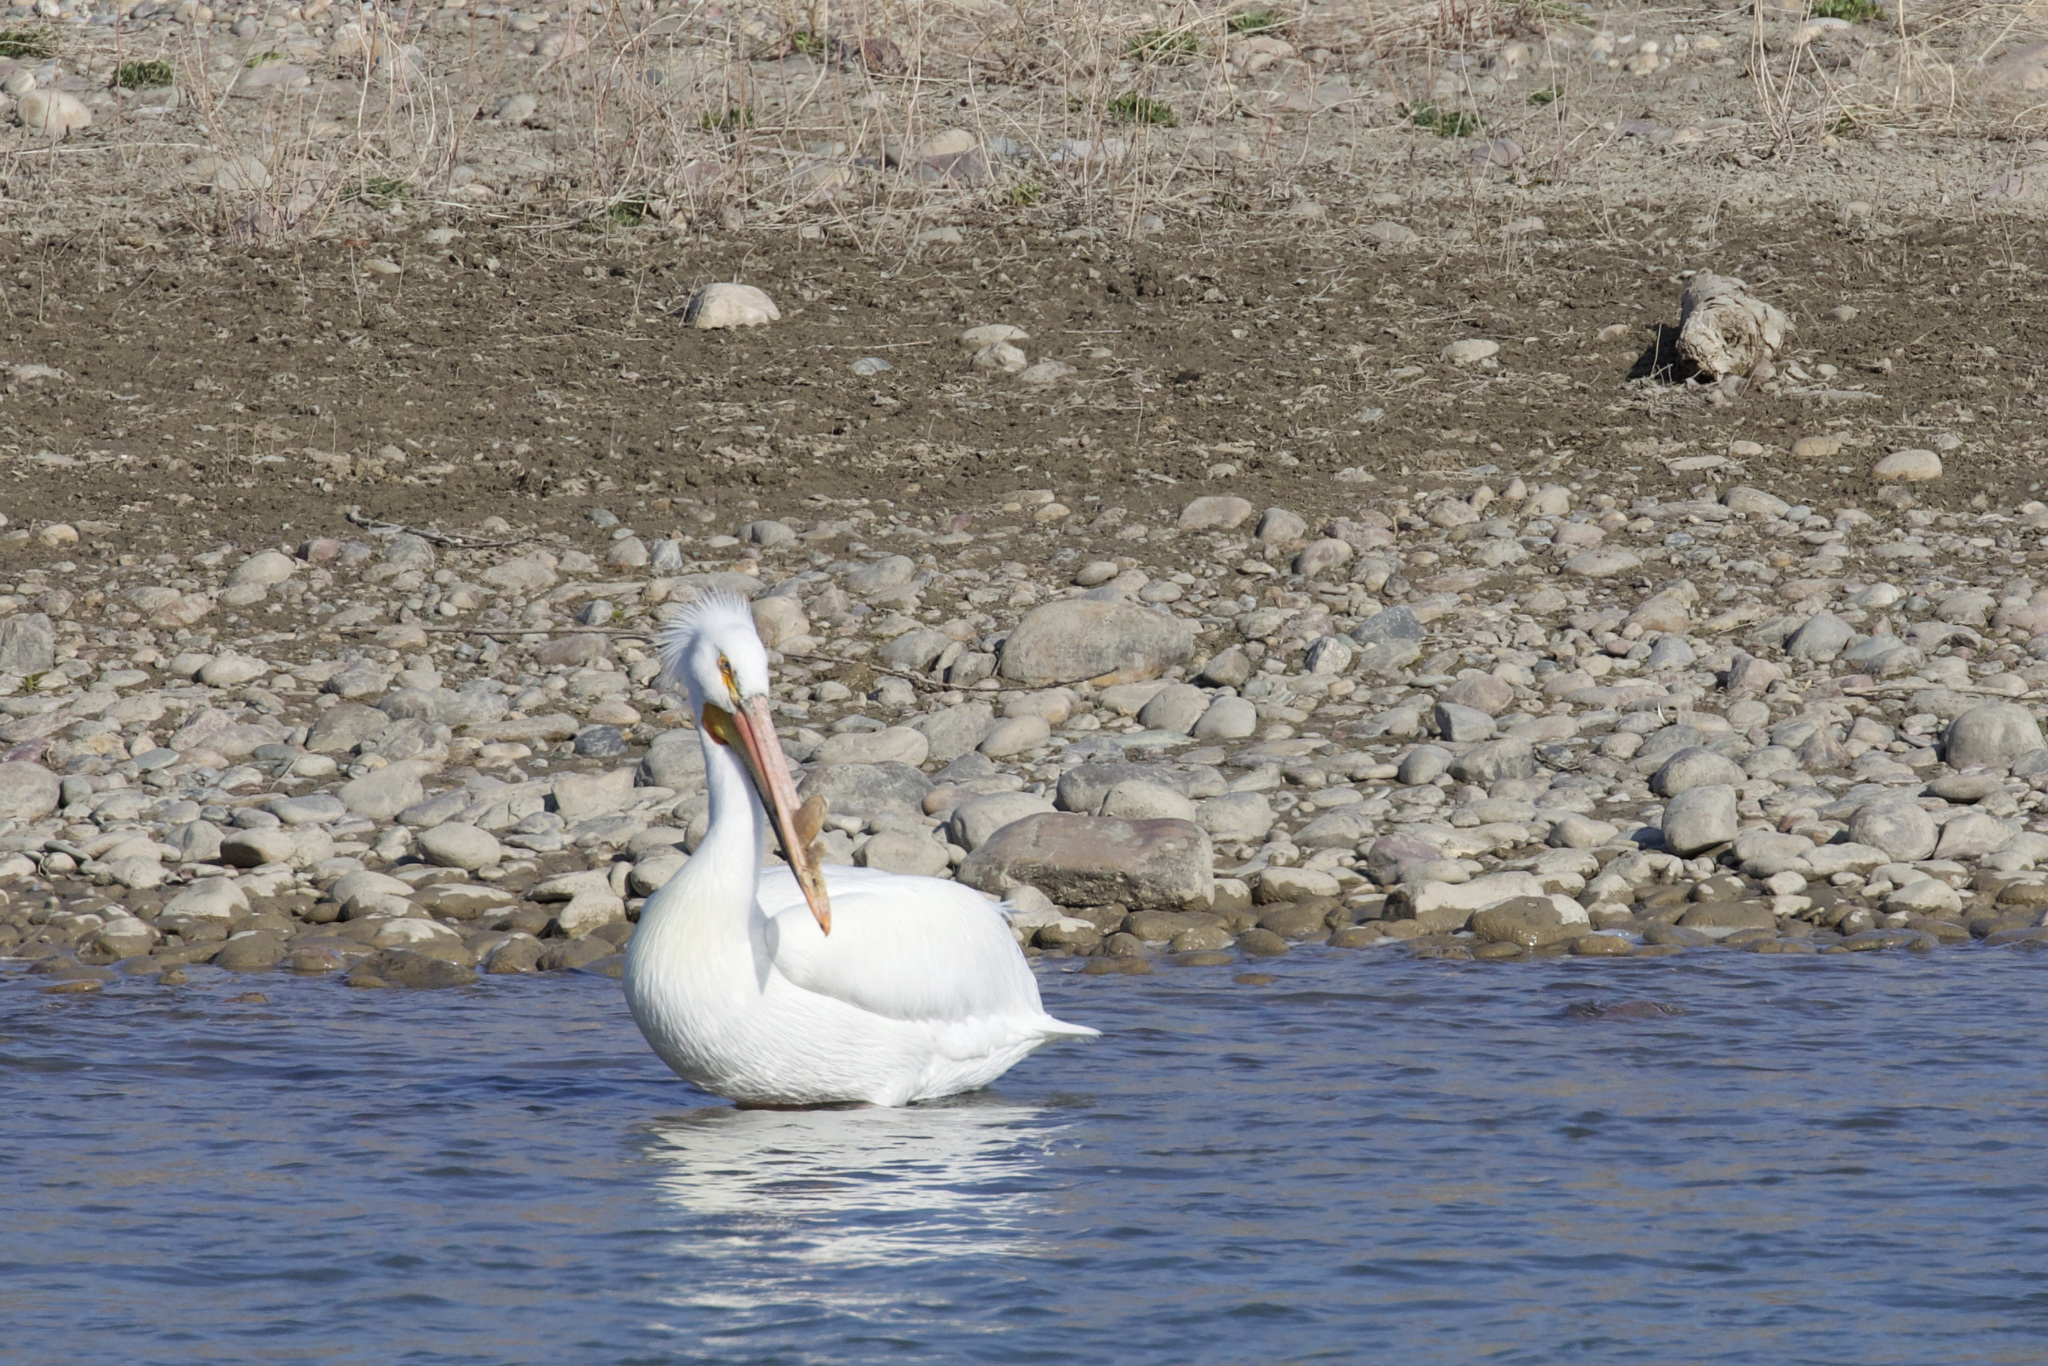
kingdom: Animalia
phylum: Chordata
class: Aves
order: Pelecaniformes
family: Pelecanidae
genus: Pelecanus
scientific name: Pelecanus erythrorhynchos
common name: American white pelican
